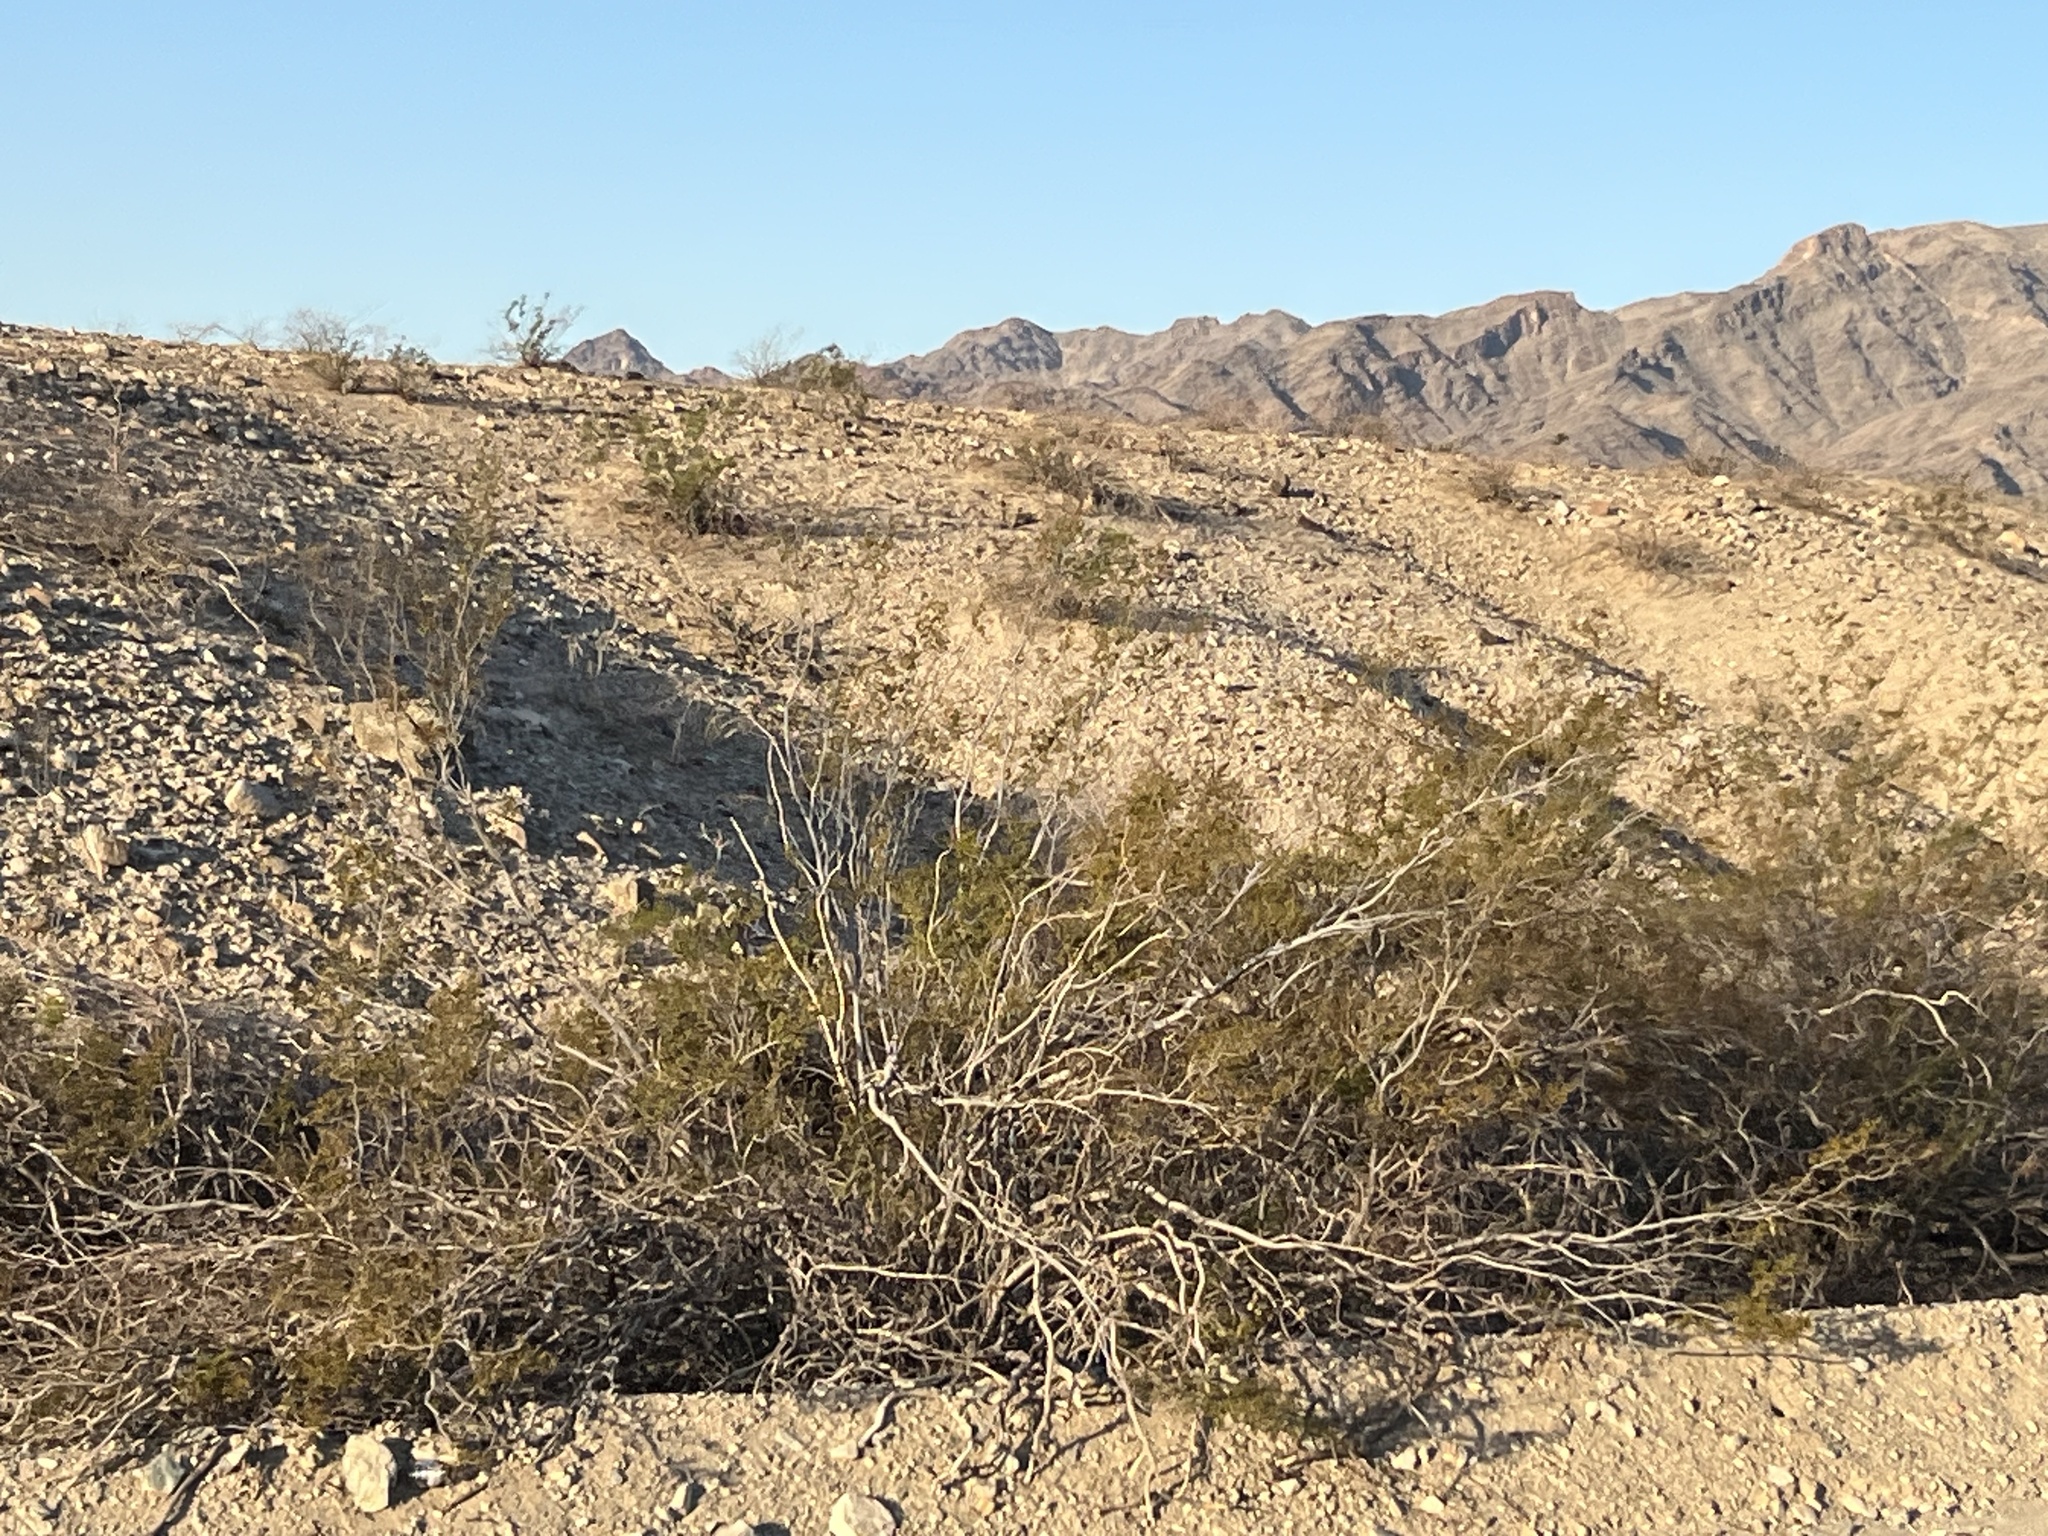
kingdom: Plantae
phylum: Tracheophyta
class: Magnoliopsida
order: Zygophyllales
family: Zygophyllaceae
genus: Larrea
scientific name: Larrea tridentata
